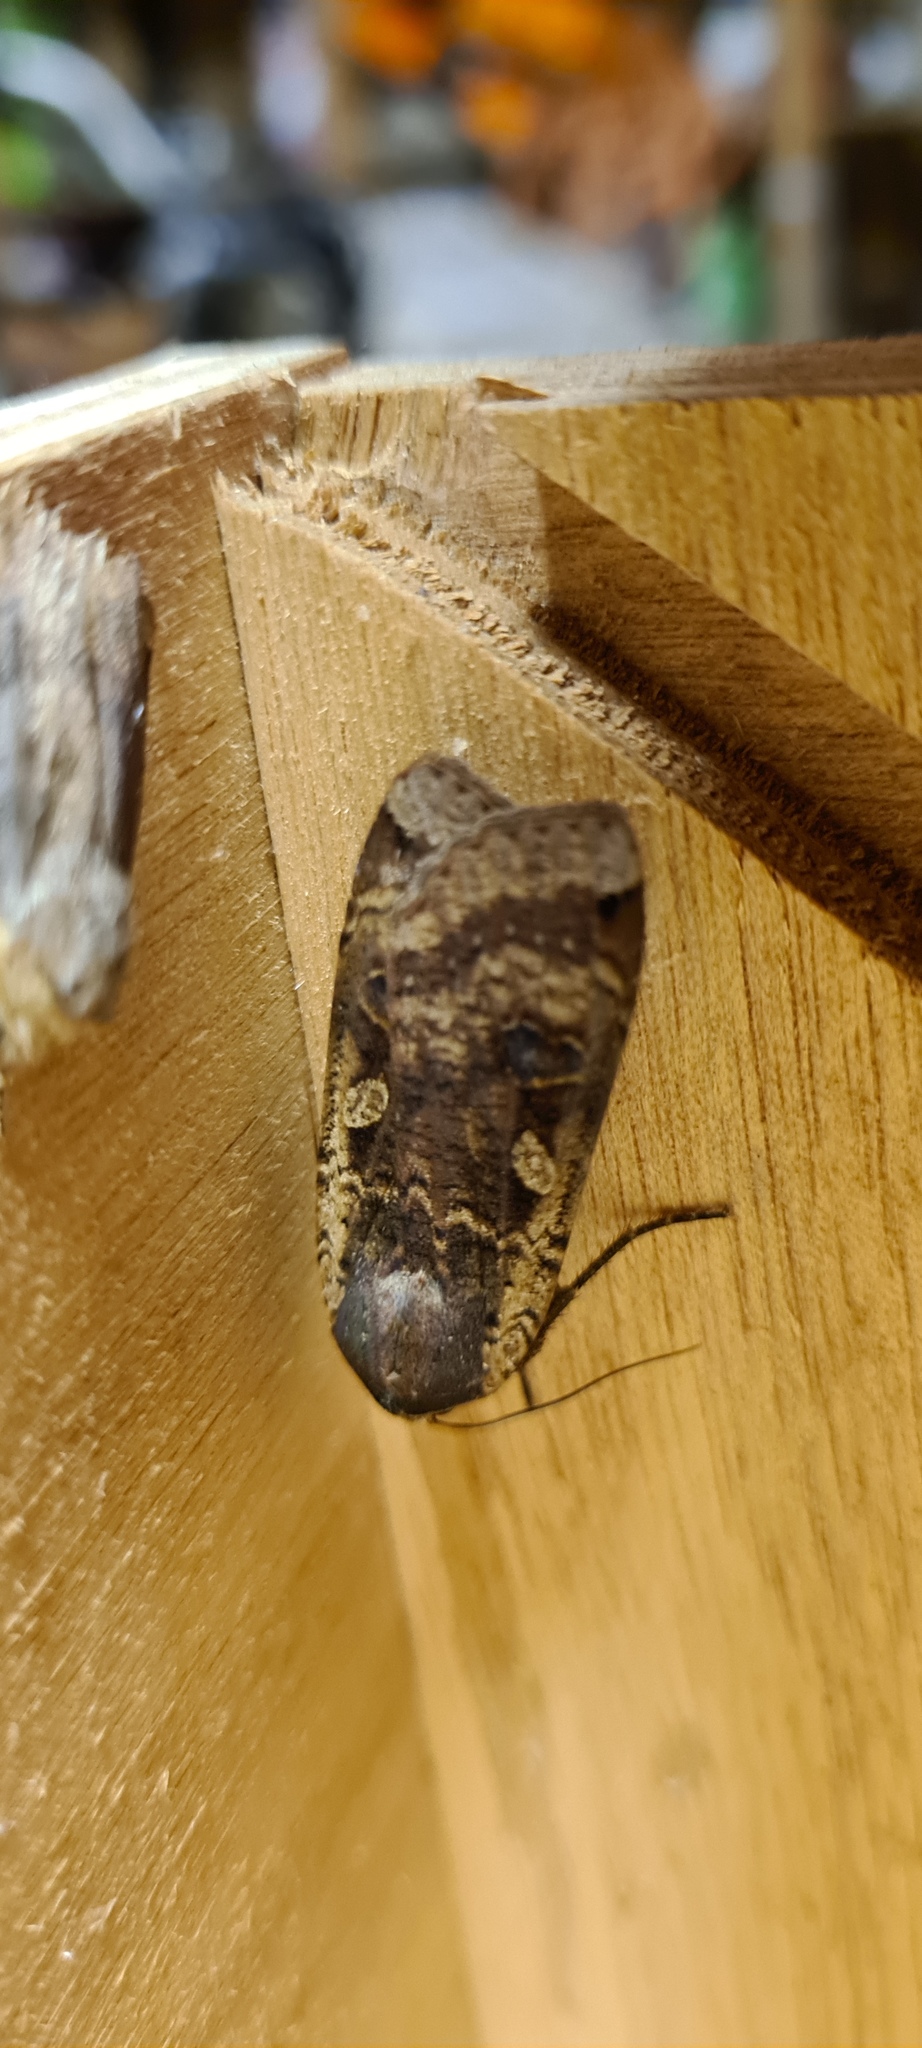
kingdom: Animalia
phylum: Arthropoda
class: Insecta
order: Lepidoptera
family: Noctuidae
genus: Noctua
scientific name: Noctua pronuba
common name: Large yellow underwing
